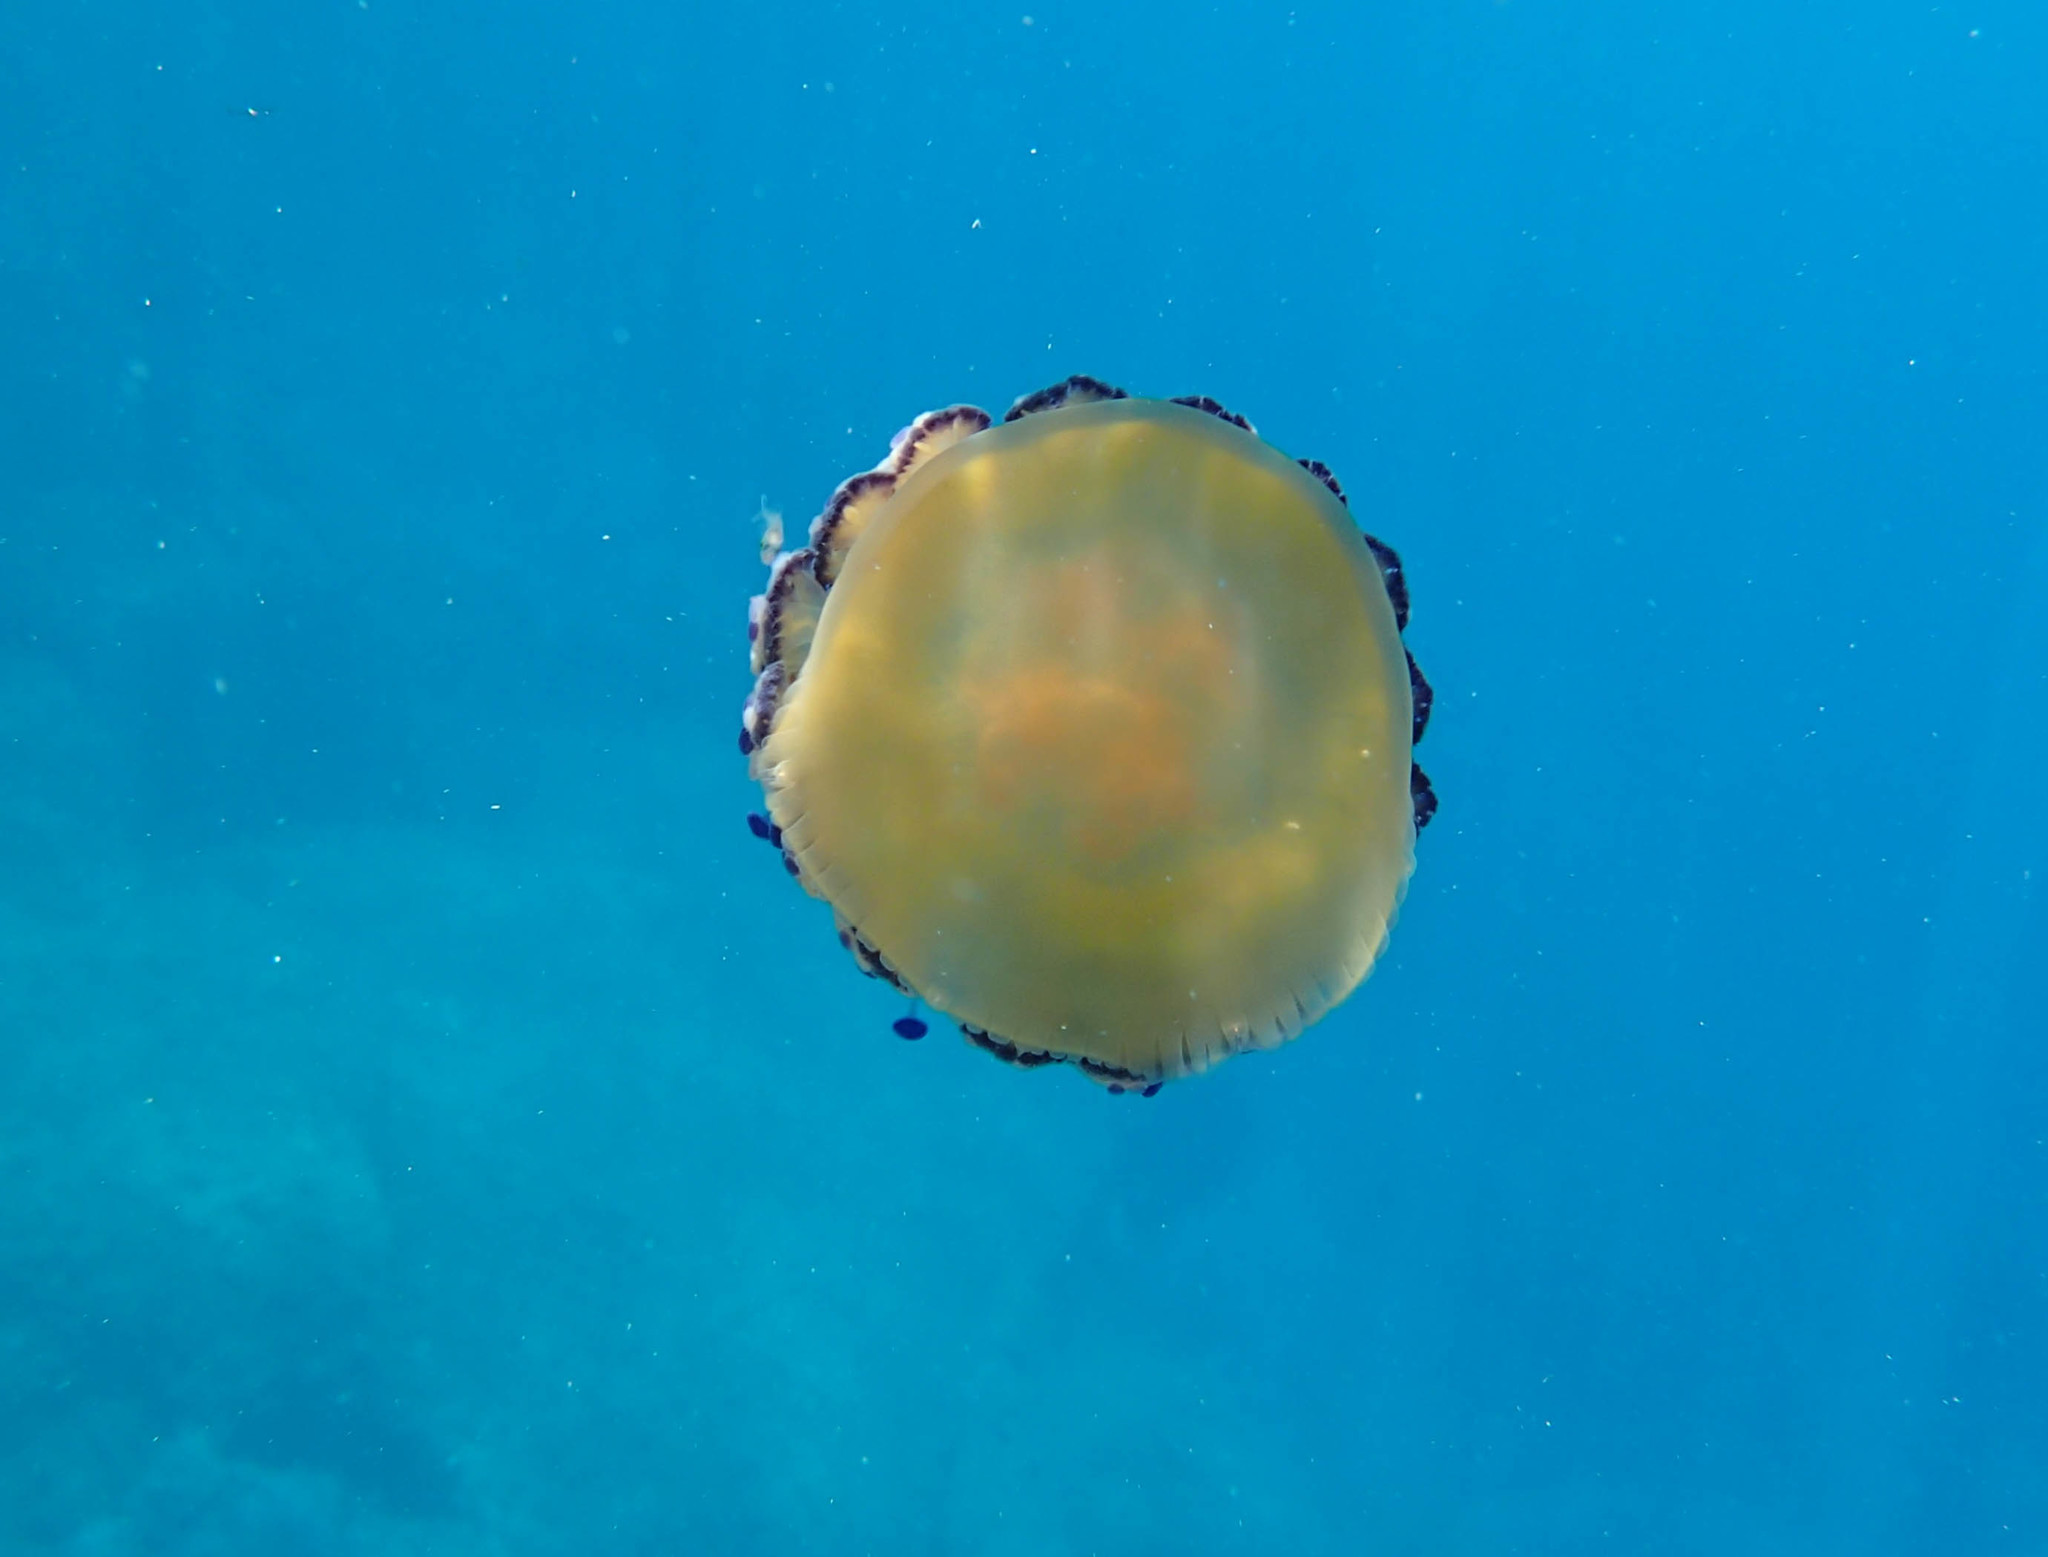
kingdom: Animalia
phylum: Cnidaria
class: Scyphozoa
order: Rhizostomeae
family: Cepheidae
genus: Cotylorhiza
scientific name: Cotylorhiza tuberculata
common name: Mediterranean jelly
